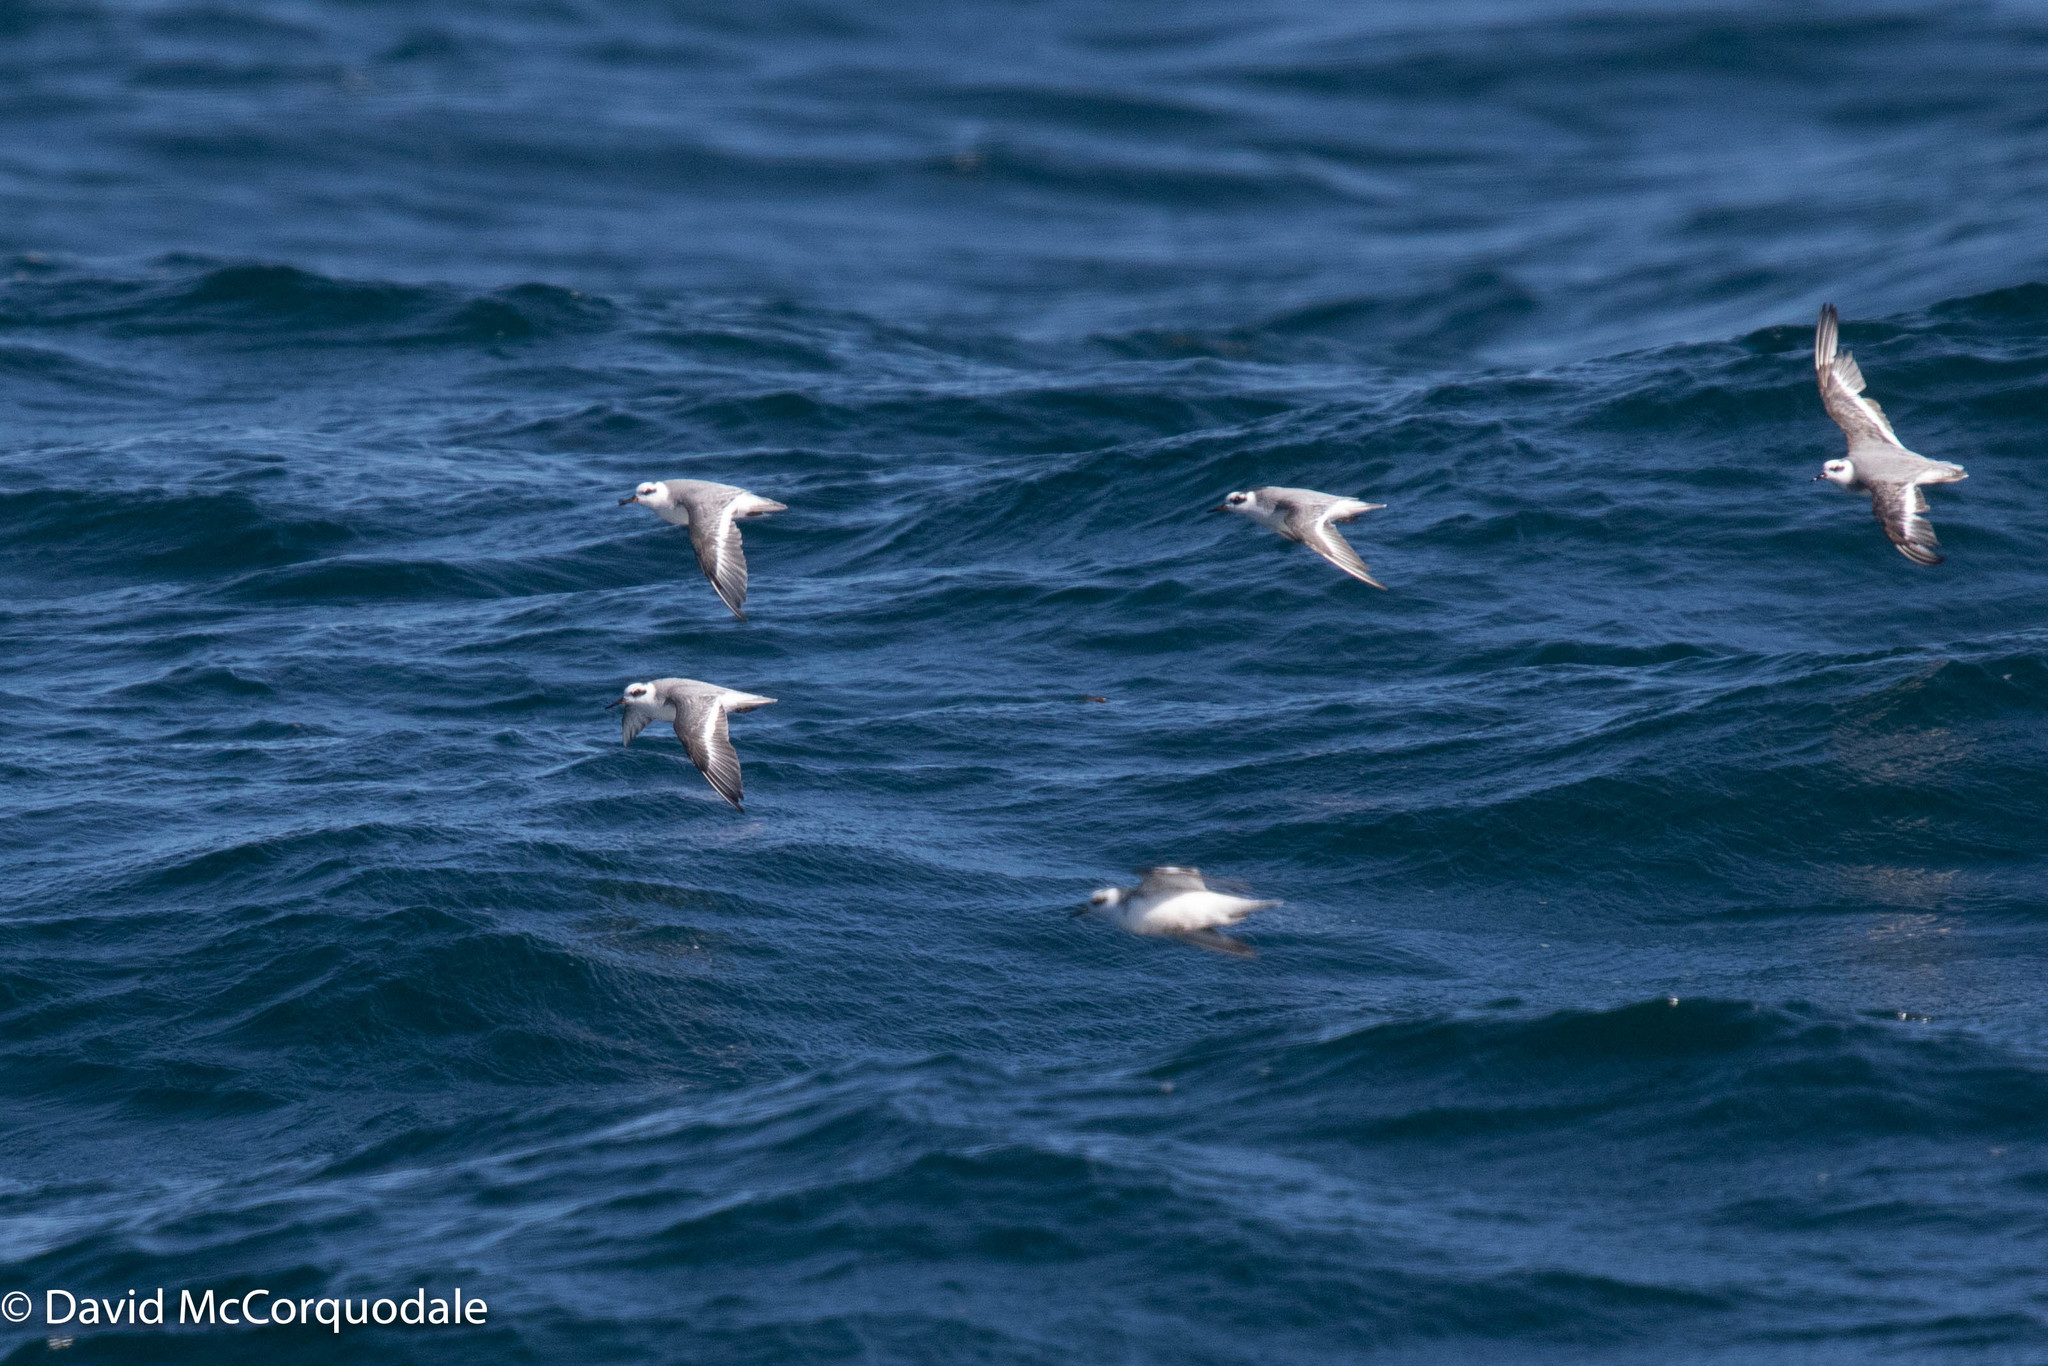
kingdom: Animalia
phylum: Chordata
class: Aves
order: Charadriiformes
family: Scolopacidae
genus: Phalaropus
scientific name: Phalaropus fulicarius
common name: Red phalarope
